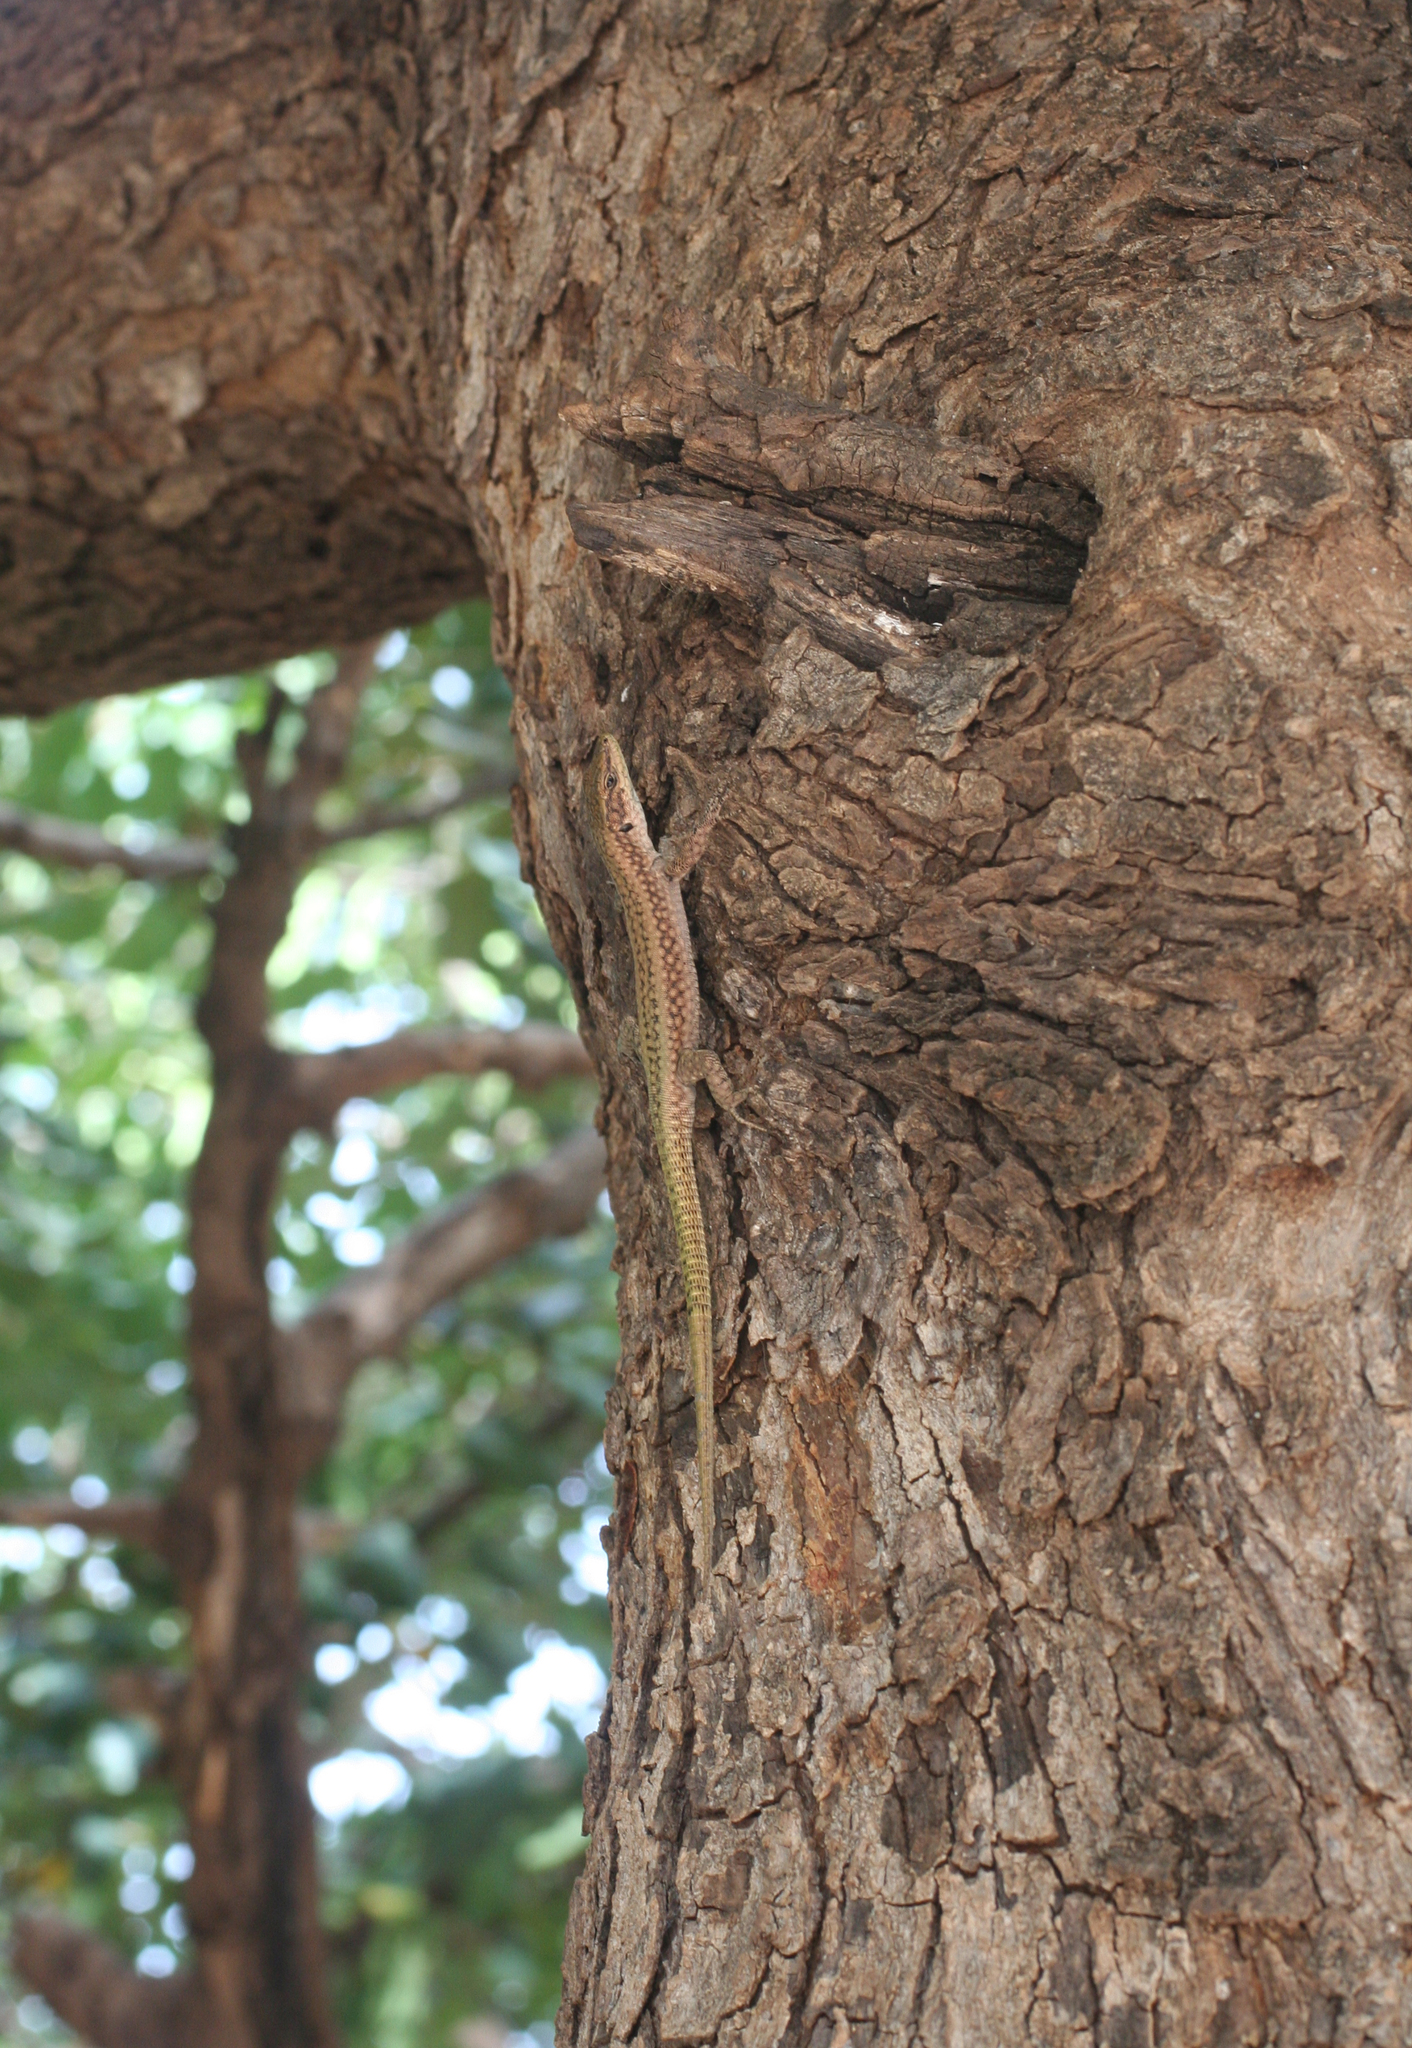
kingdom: Animalia
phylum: Chordata
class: Squamata
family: Lacertidae
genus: Scelarcis
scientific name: Scelarcis perspicillata
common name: Moroccan rock lizard
